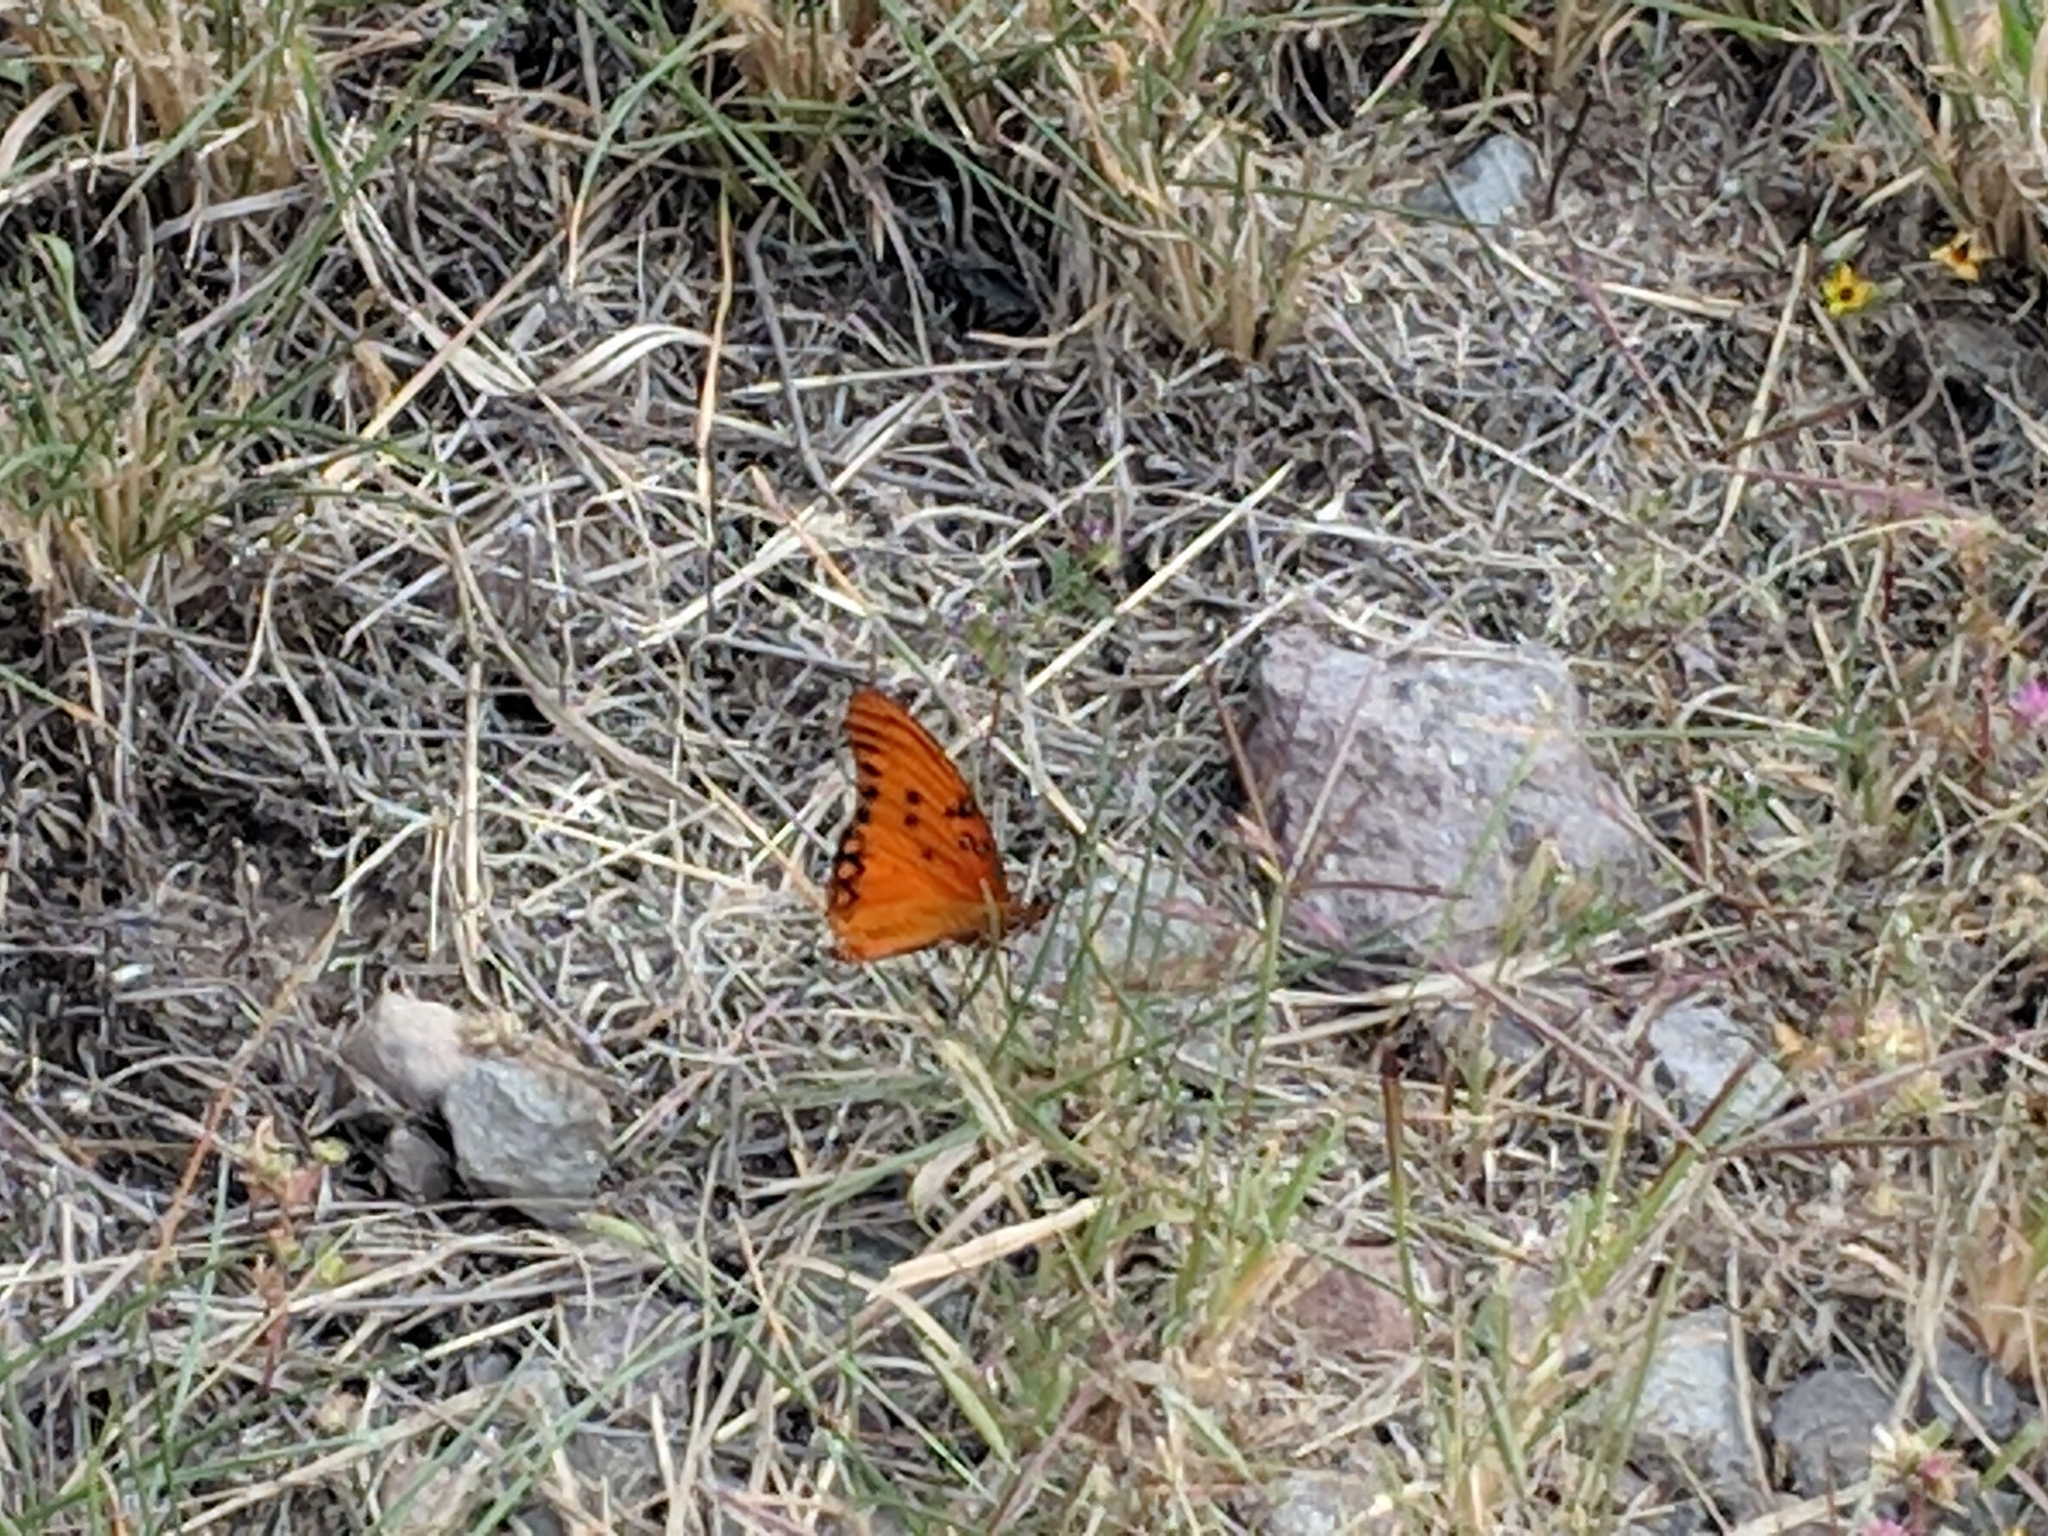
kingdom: Animalia
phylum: Arthropoda
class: Insecta
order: Lepidoptera
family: Nymphalidae
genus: Dione
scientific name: Dione vanillae
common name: Gulf fritillary
